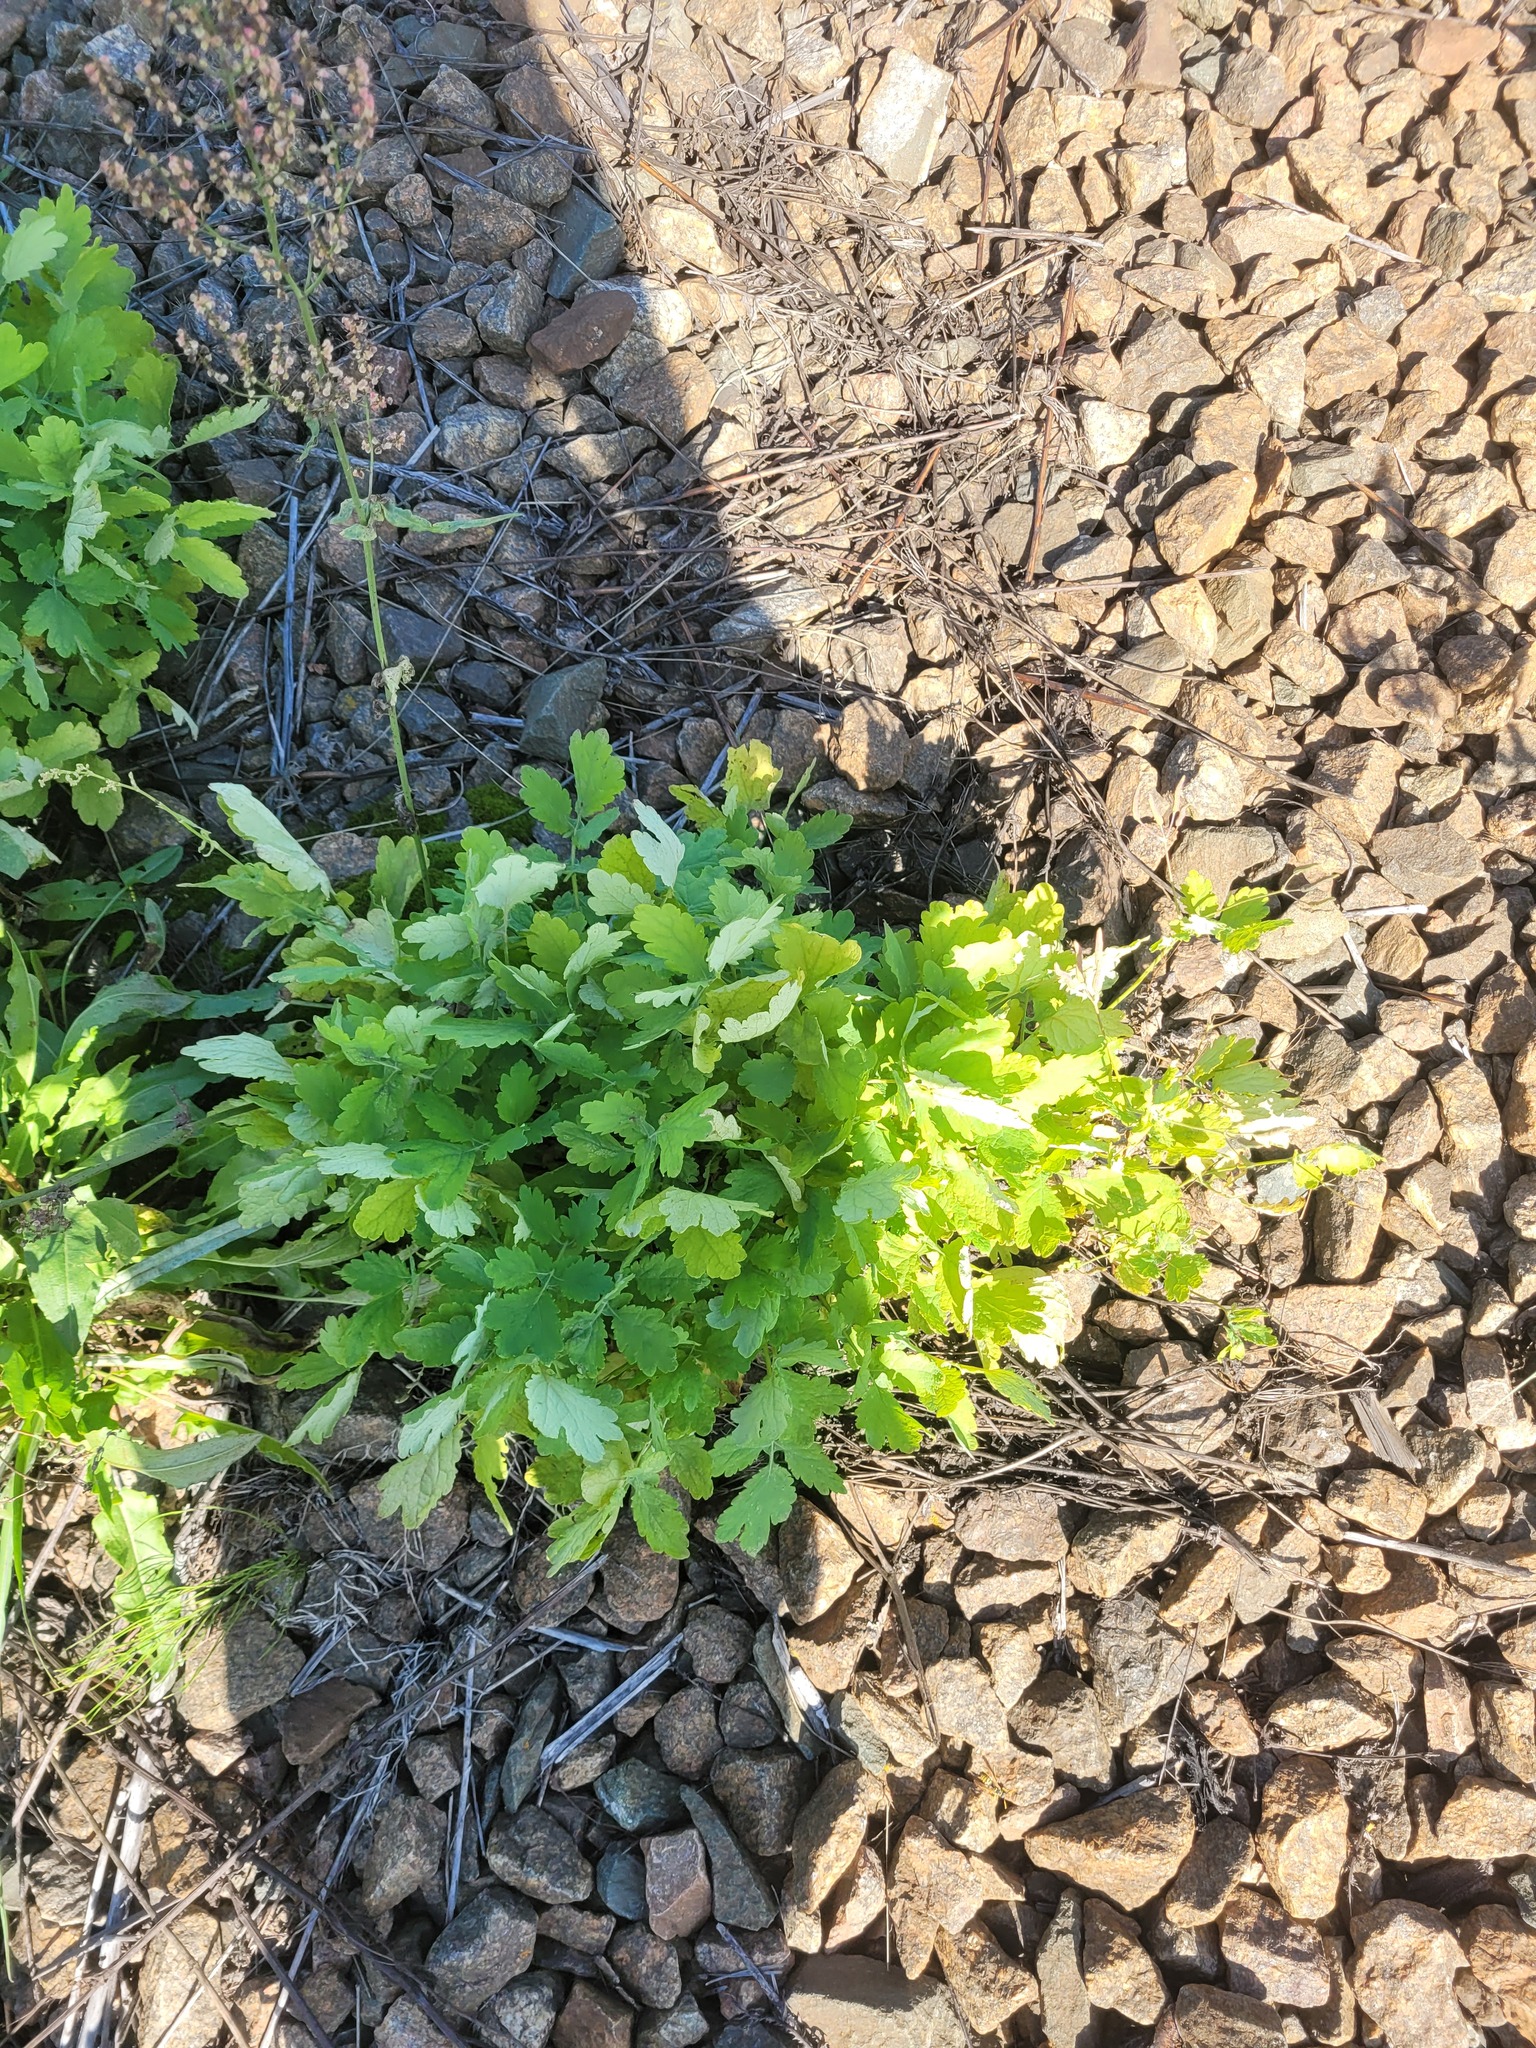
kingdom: Plantae
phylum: Tracheophyta
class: Magnoliopsida
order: Ranunculales
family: Papaveraceae
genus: Chelidonium
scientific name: Chelidonium majus
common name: Greater celandine
